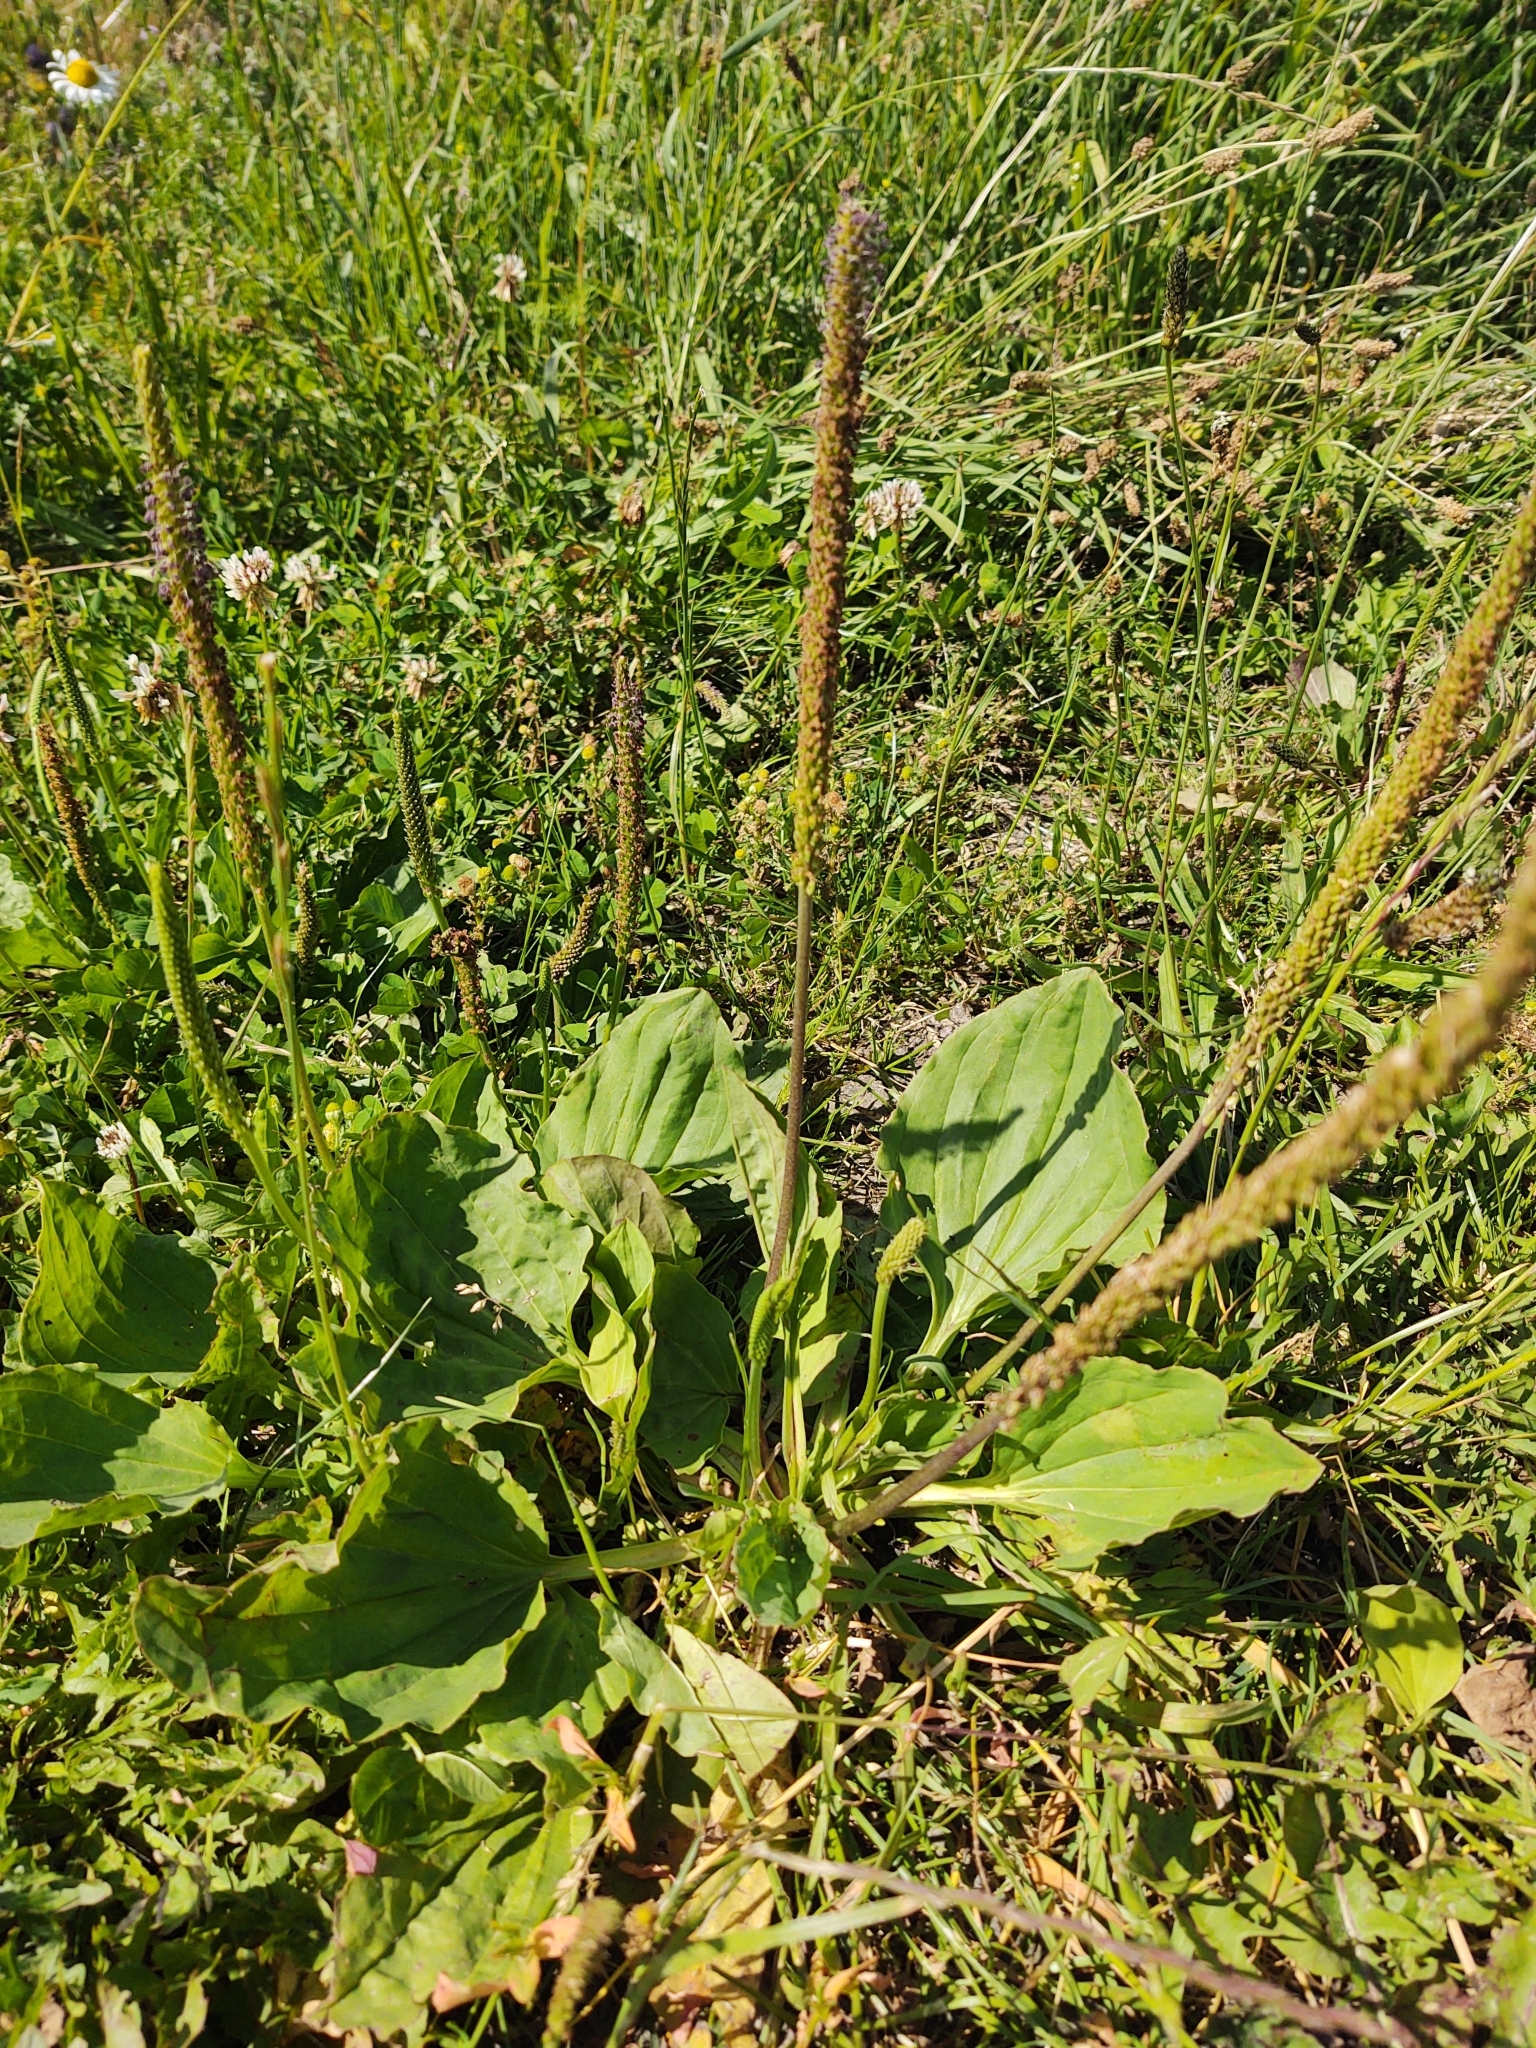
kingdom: Plantae
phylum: Tracheophyta
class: Magnoliopsida
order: Lamiales
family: Plantaginaceae
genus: Plantago
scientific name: Plantago major
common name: Common plantain
